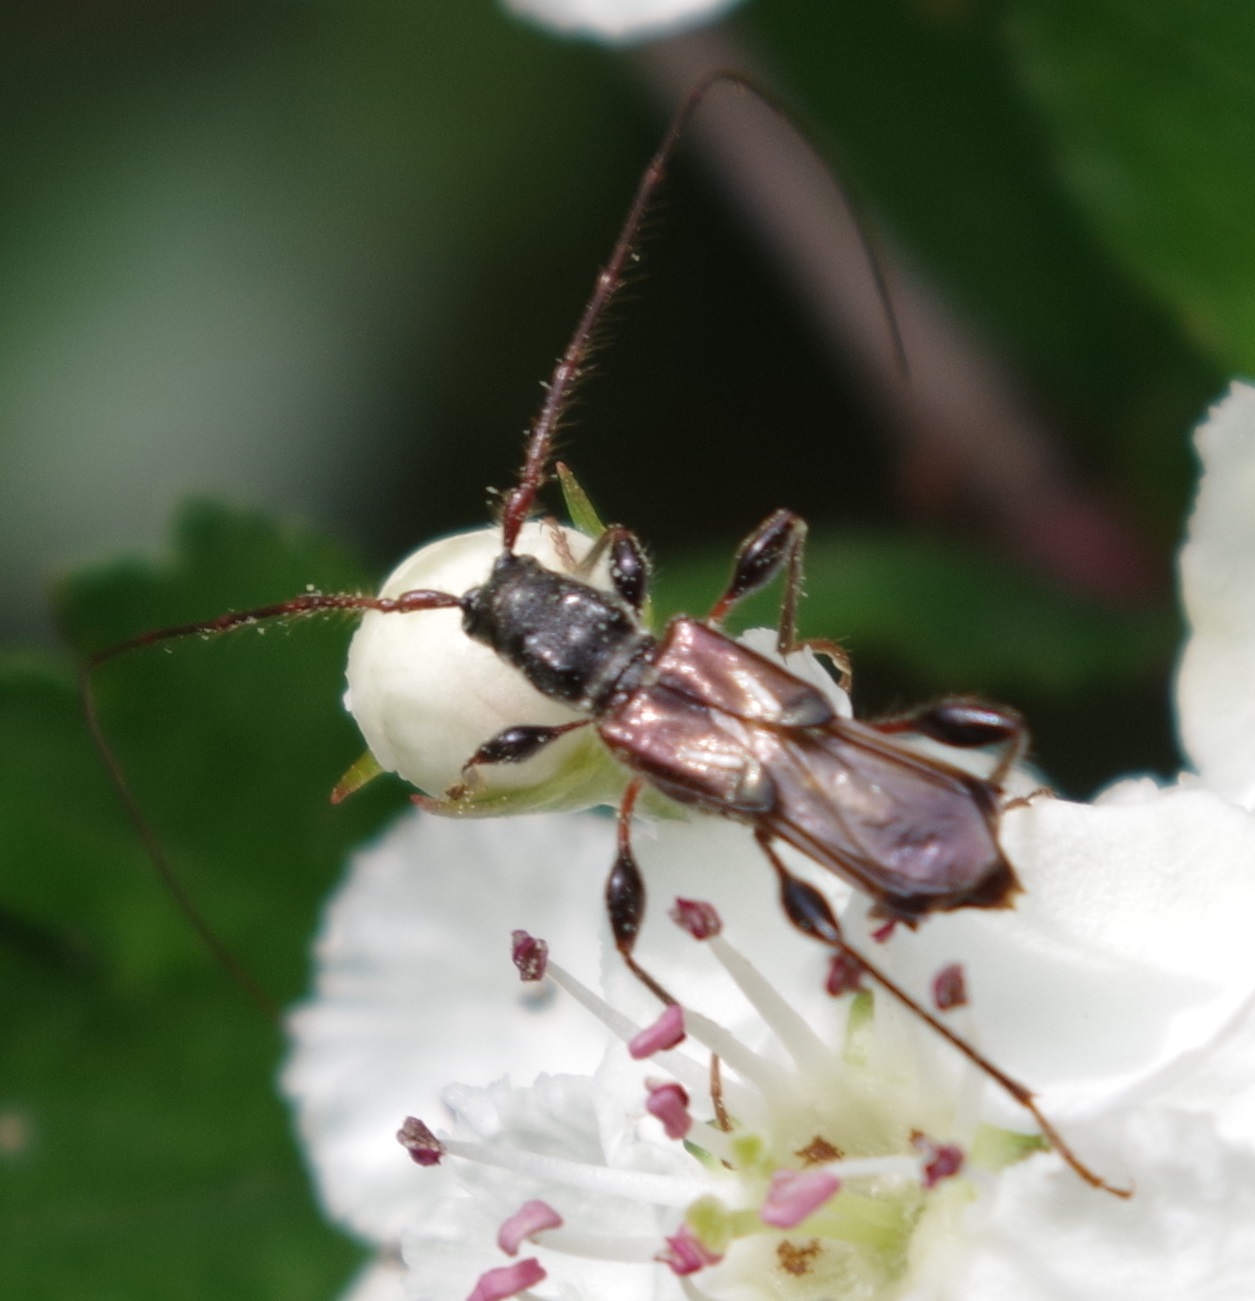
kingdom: Animalia
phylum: Arthropoda
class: Insecta
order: Coleoptera
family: Cerambycidae
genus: Molorchus
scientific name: Molorchus minor
